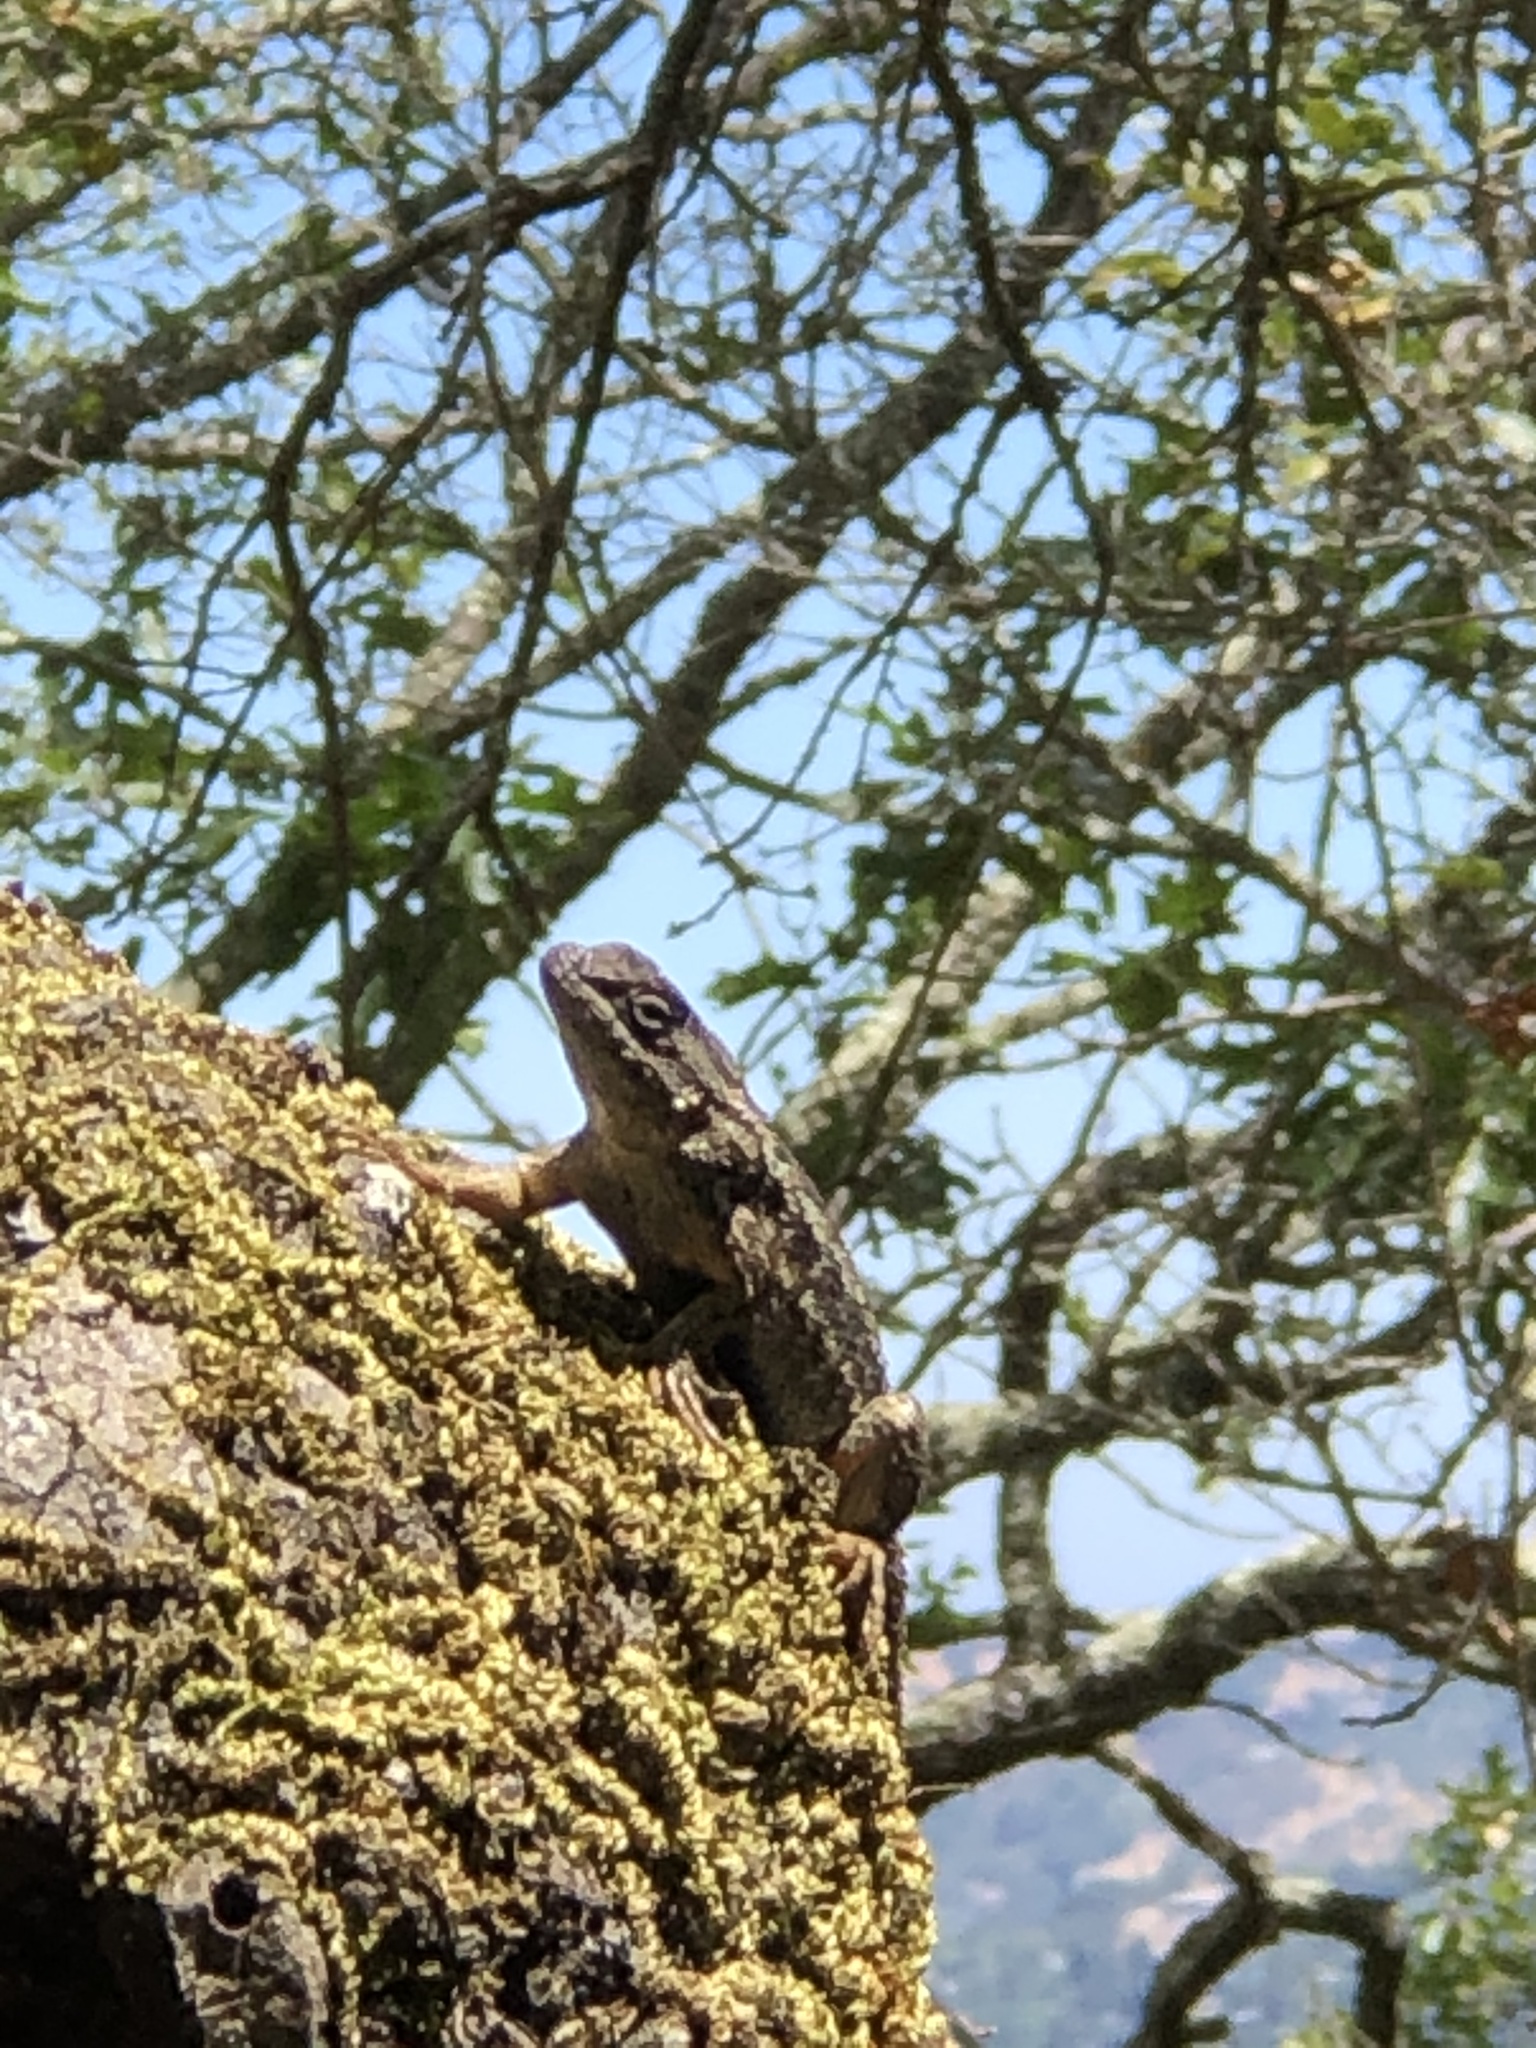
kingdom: Animalia
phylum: Chordata
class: Squamata
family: Phrynosomatidae
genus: Sceloporus
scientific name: Sceloporus occidentalis
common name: Western fence lizard
